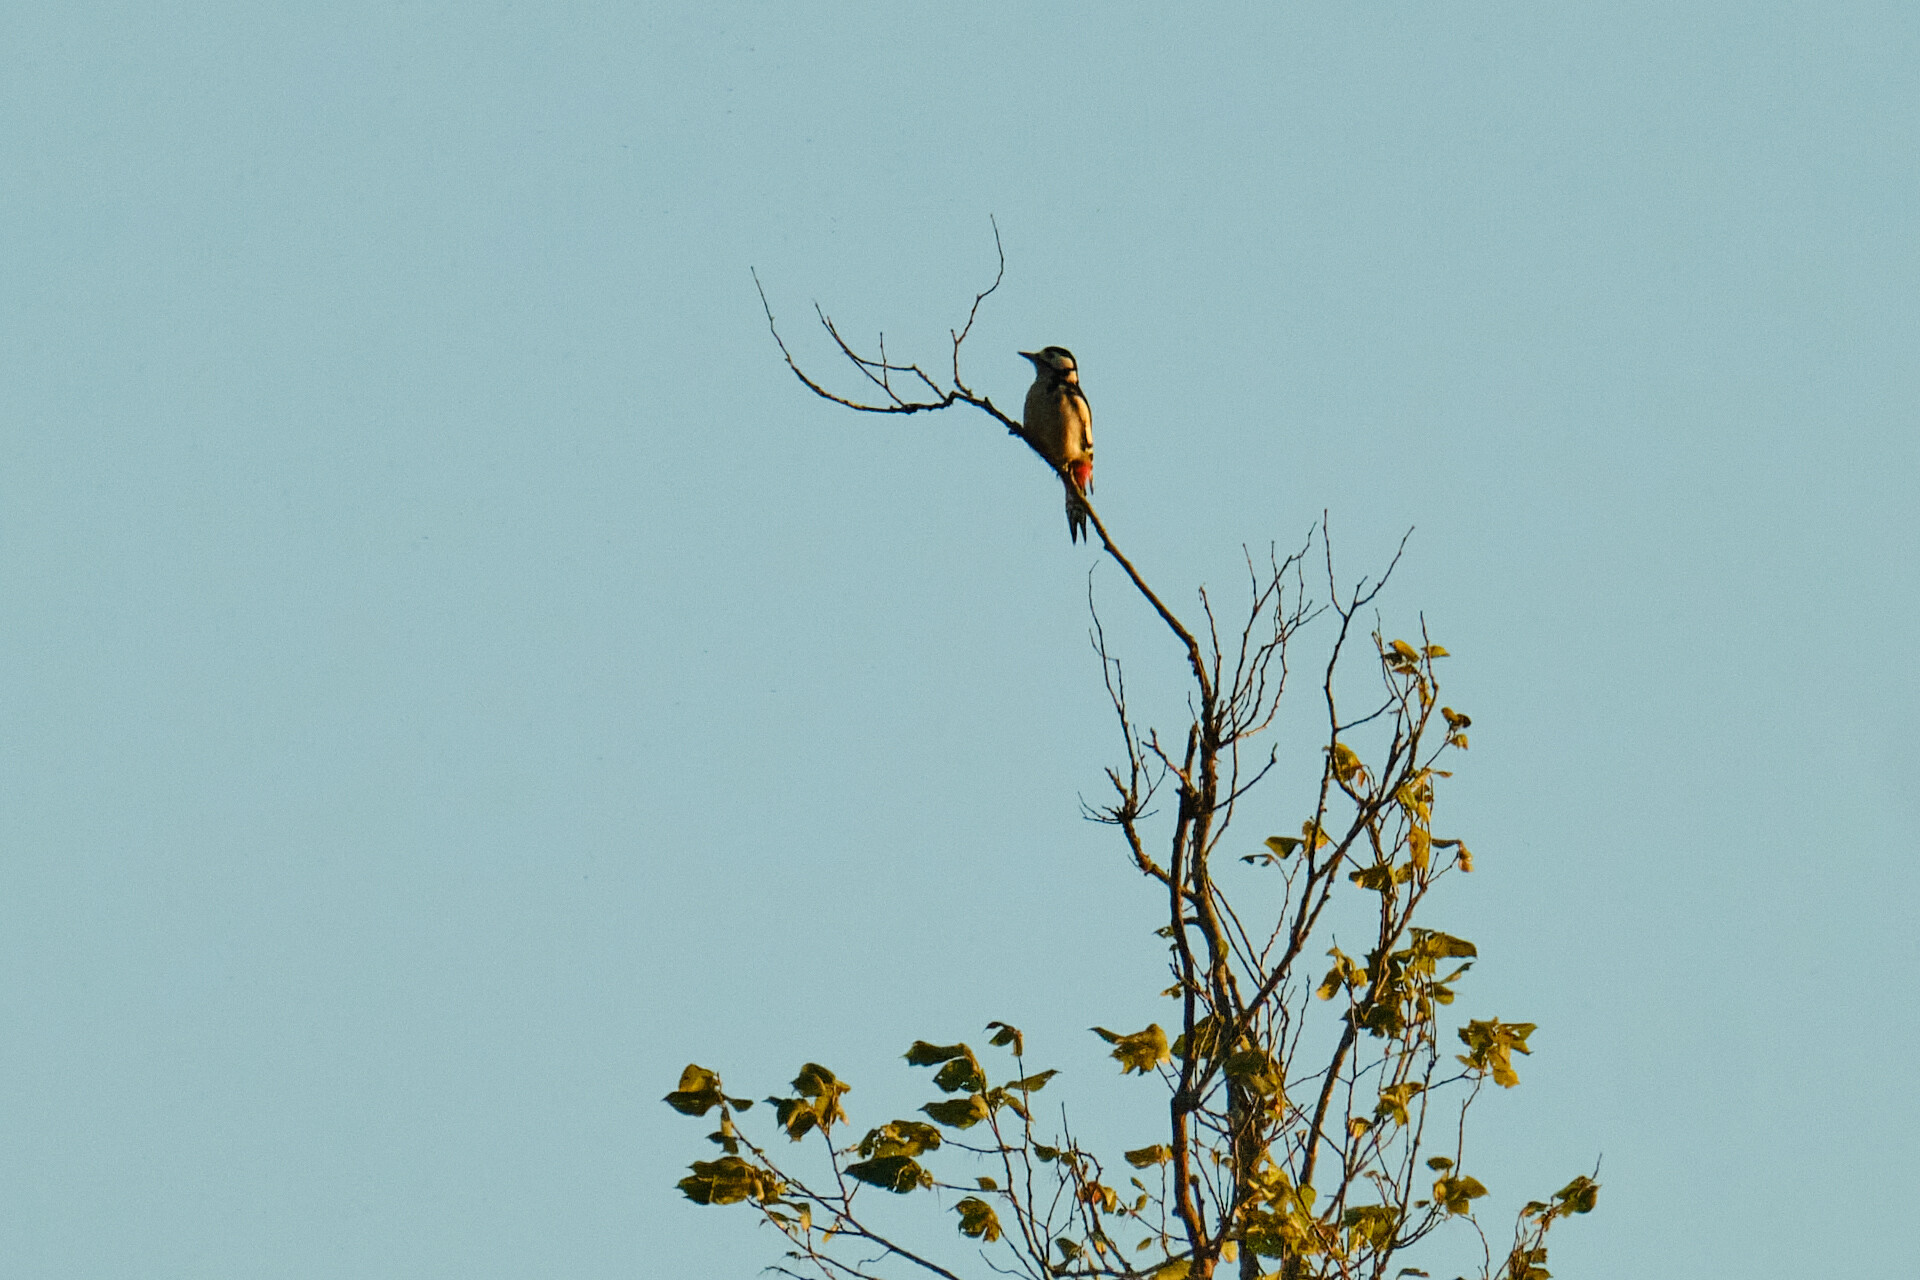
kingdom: Animalia
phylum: Chordata
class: Aves
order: Piciformes
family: Picidae
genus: Dendrocopos
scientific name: Dendrocopos major
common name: Great spotted woodpecker
